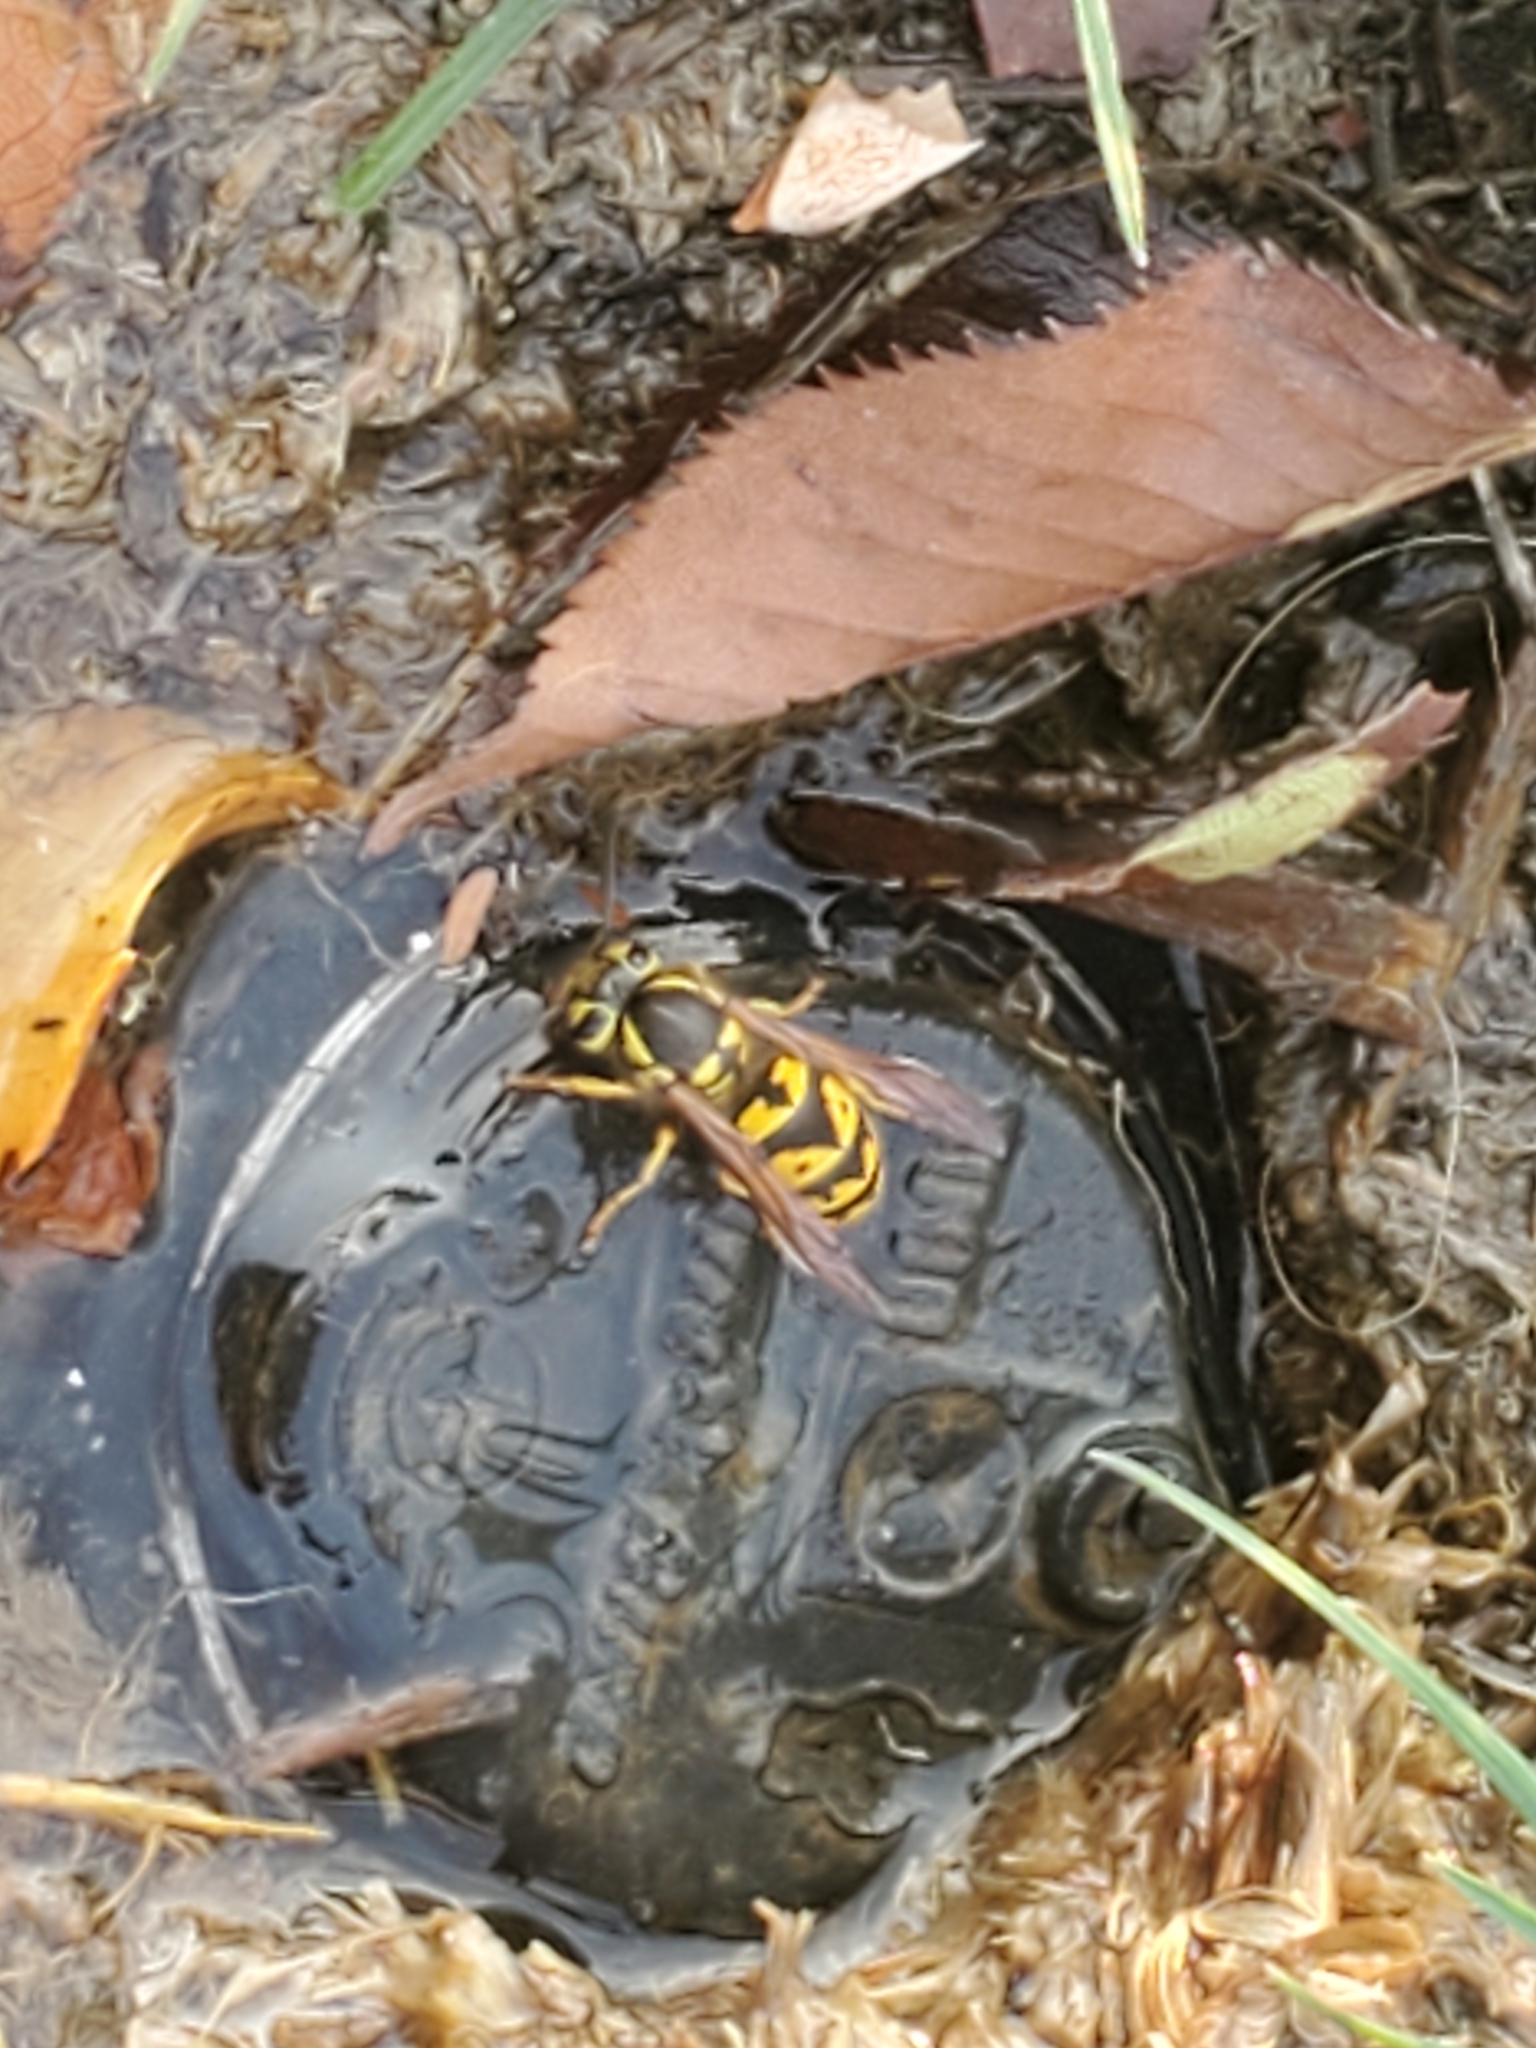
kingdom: Animalia
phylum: Arthropoda
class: Insecta
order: Hymenoptera
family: Vespidae
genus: Vespula
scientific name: Vespula pensylvanica
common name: Western yellowjacket
